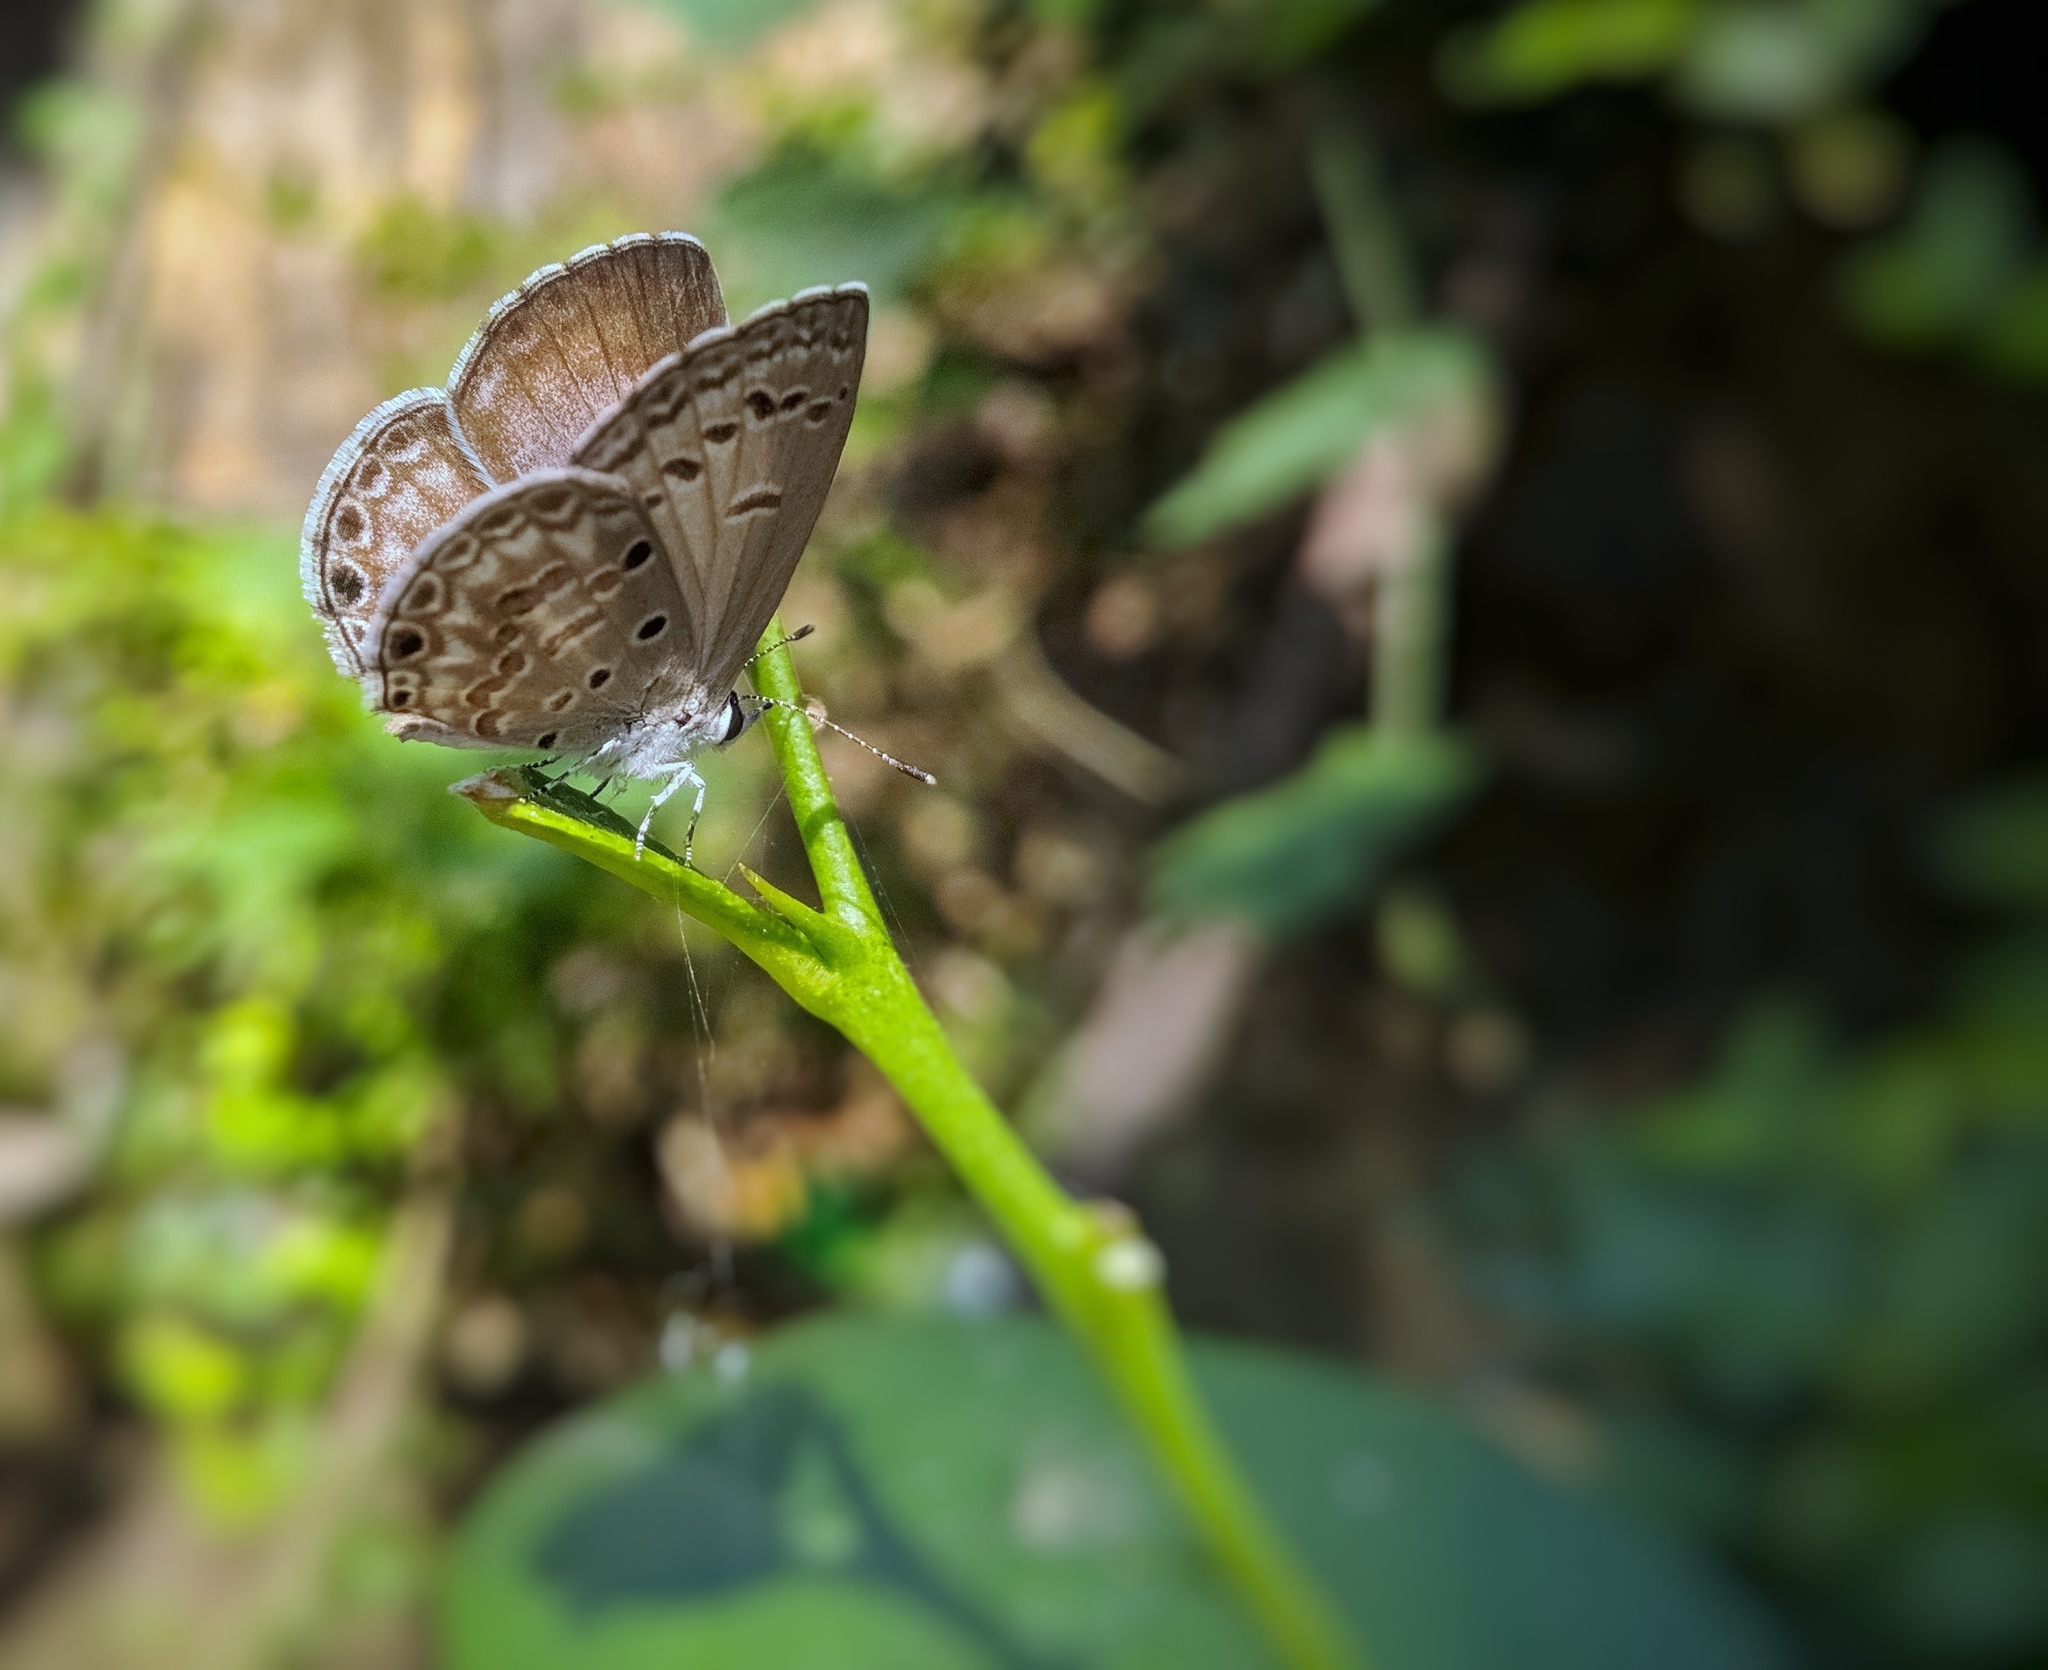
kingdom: Animalia
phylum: Arthropoda
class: Insecta
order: Lepidoptera
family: Lycaenidae
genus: Chilades
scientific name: Chilades laius
